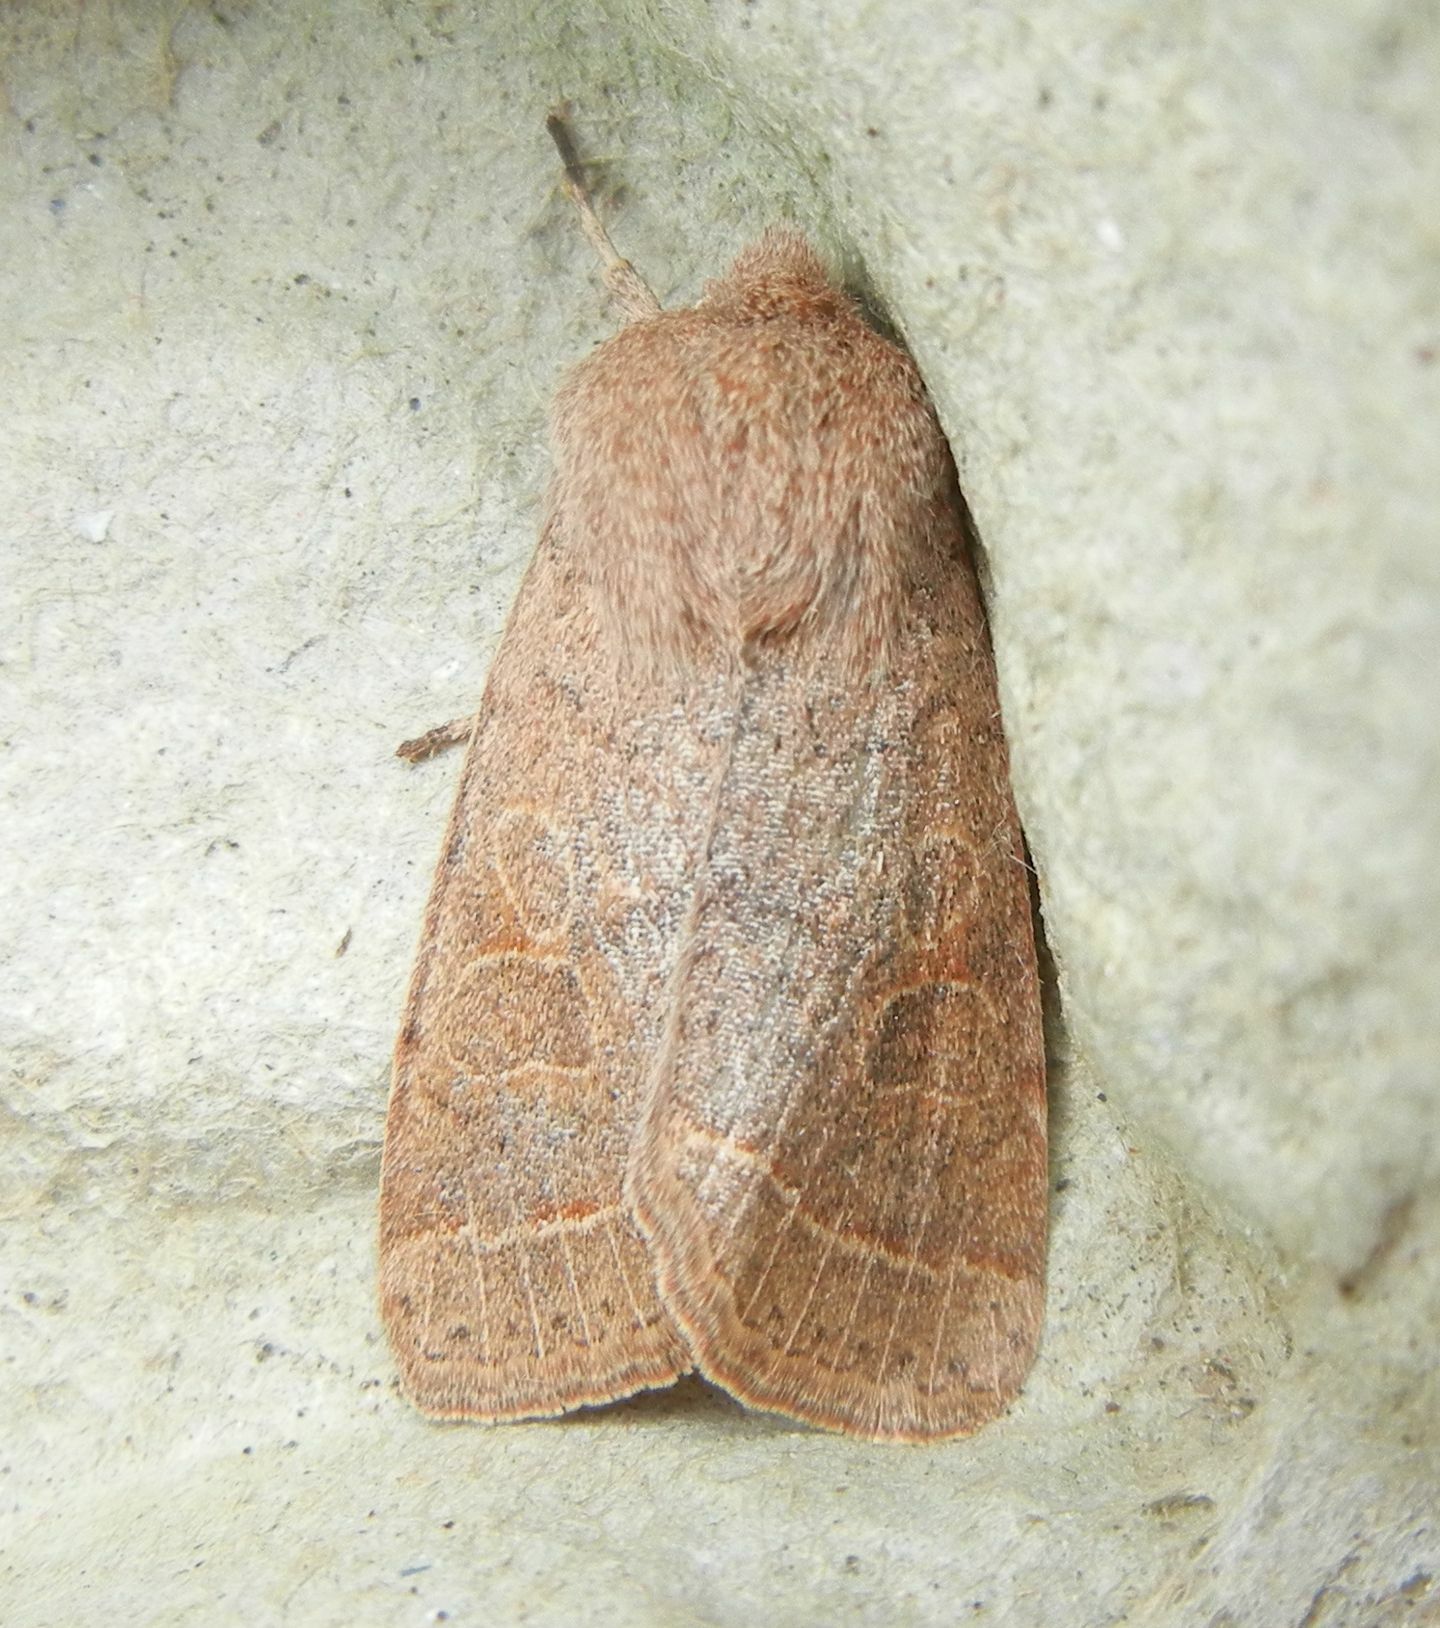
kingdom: Animalia
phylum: Arthropoda
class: Insecta
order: Lepidoptera
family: Noctuidae
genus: Orthosia
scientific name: Orthosia cerasi
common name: Common quaker
